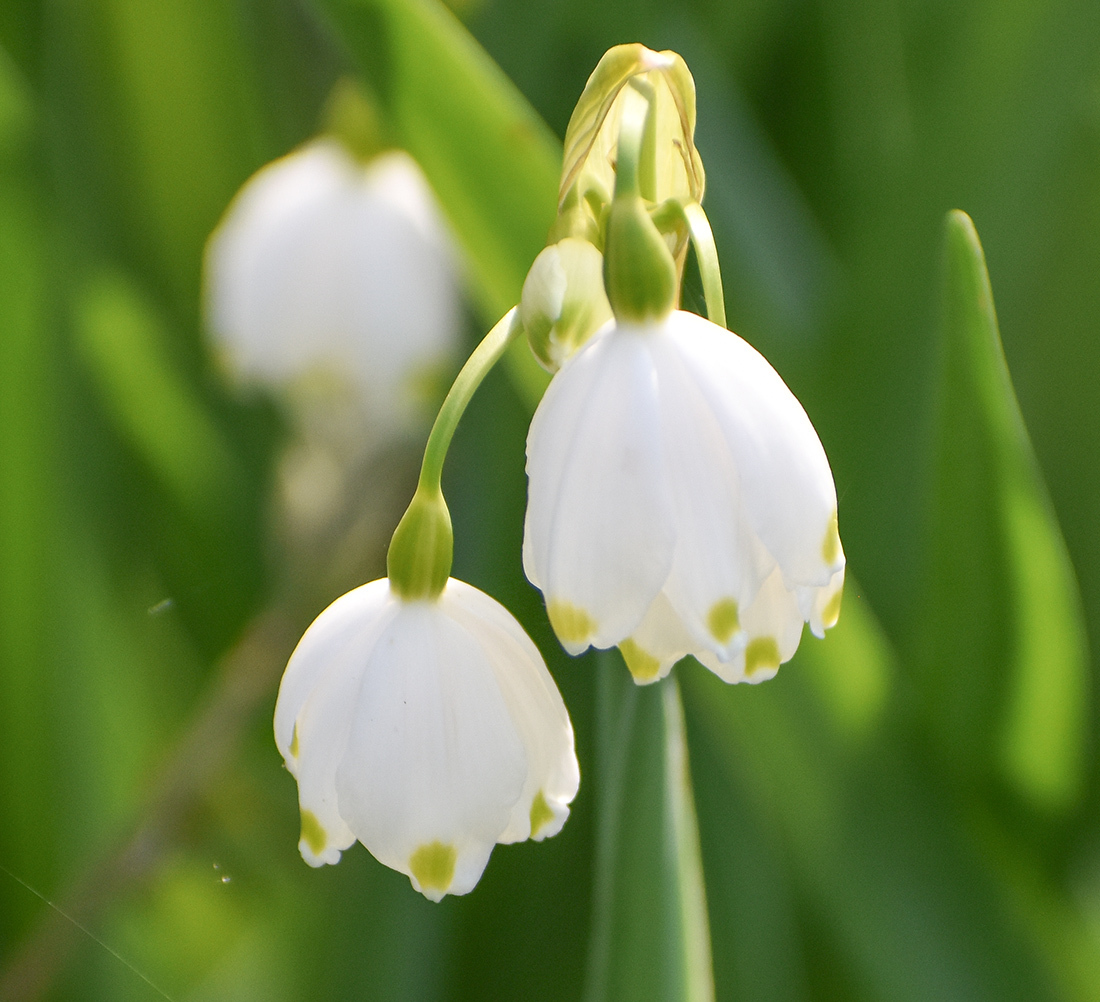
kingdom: Plantae
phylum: Tracheophyta
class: Liliopsida
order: Asparagales
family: Amaryllidaceae
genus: Leucojum
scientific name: Leucojum aestivum
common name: Summer snowflake
